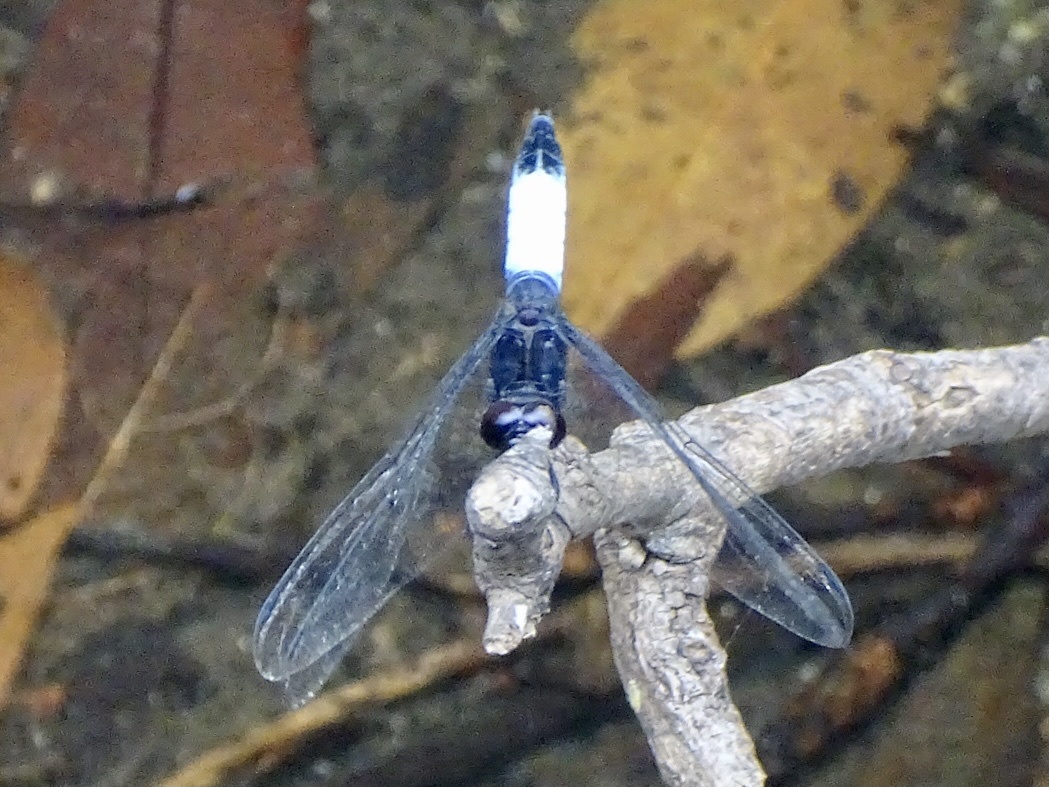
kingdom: Animalia
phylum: Arthropoda
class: Insecta
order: Odonata
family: Libellulidae
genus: Orthetrum
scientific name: Orthetrum triangulare
